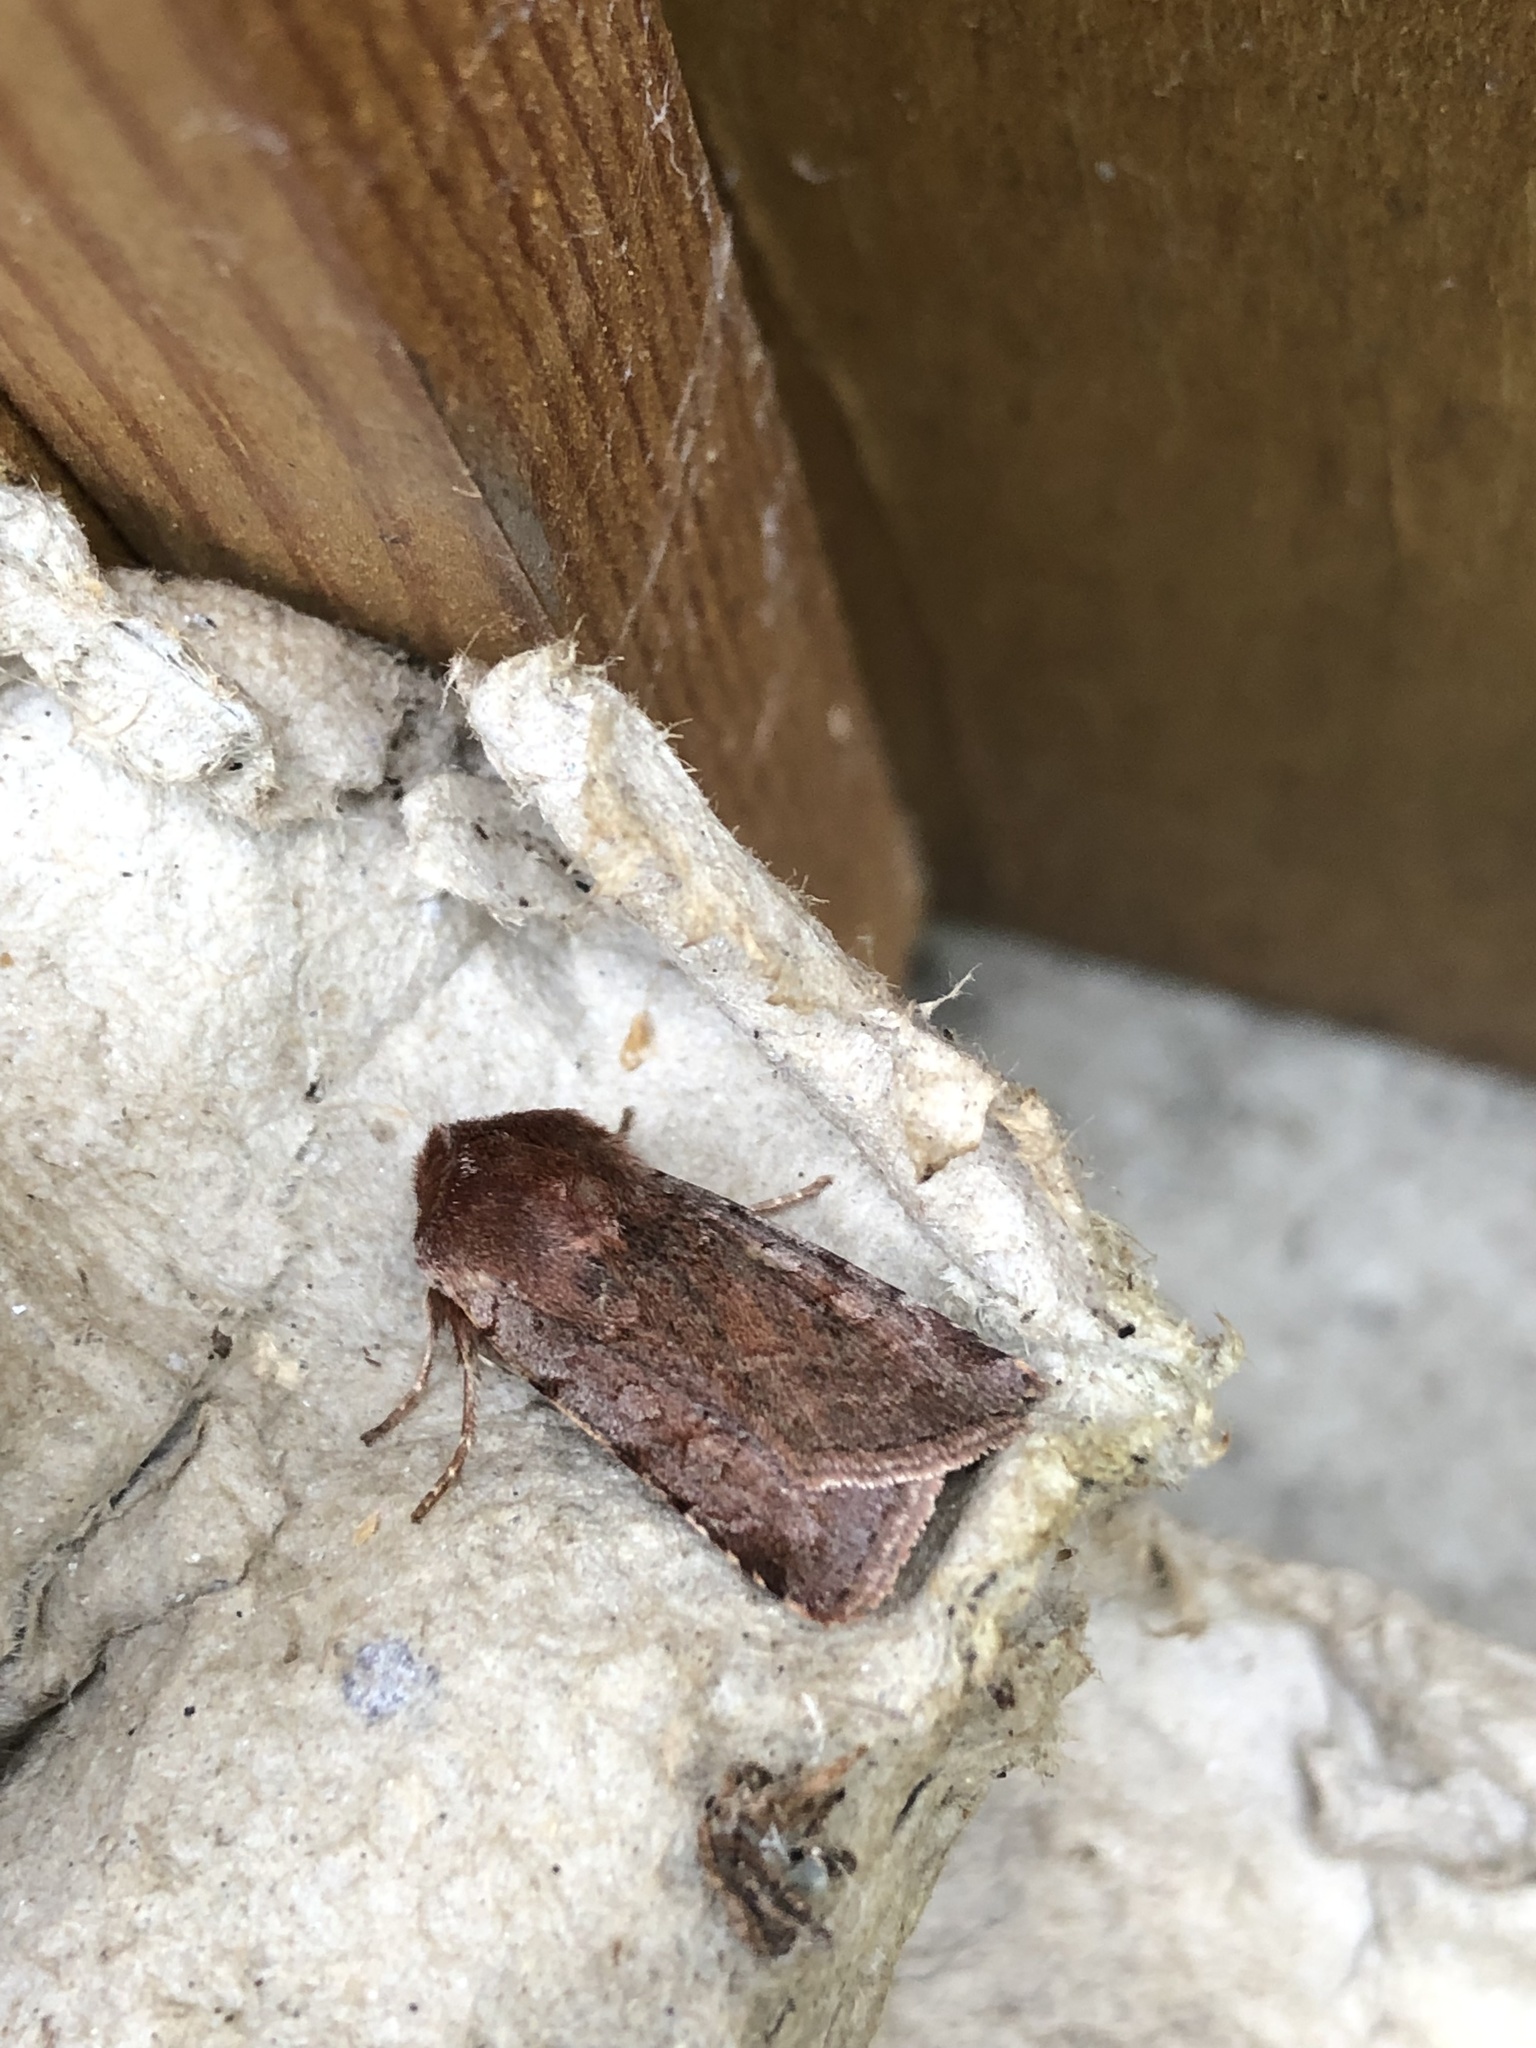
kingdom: Animalia
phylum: Arthropoda
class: Insecta
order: Lepidoptera
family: Noctuidae
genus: Cerastis
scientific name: Cerastis rubricosa
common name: Red chestnut
